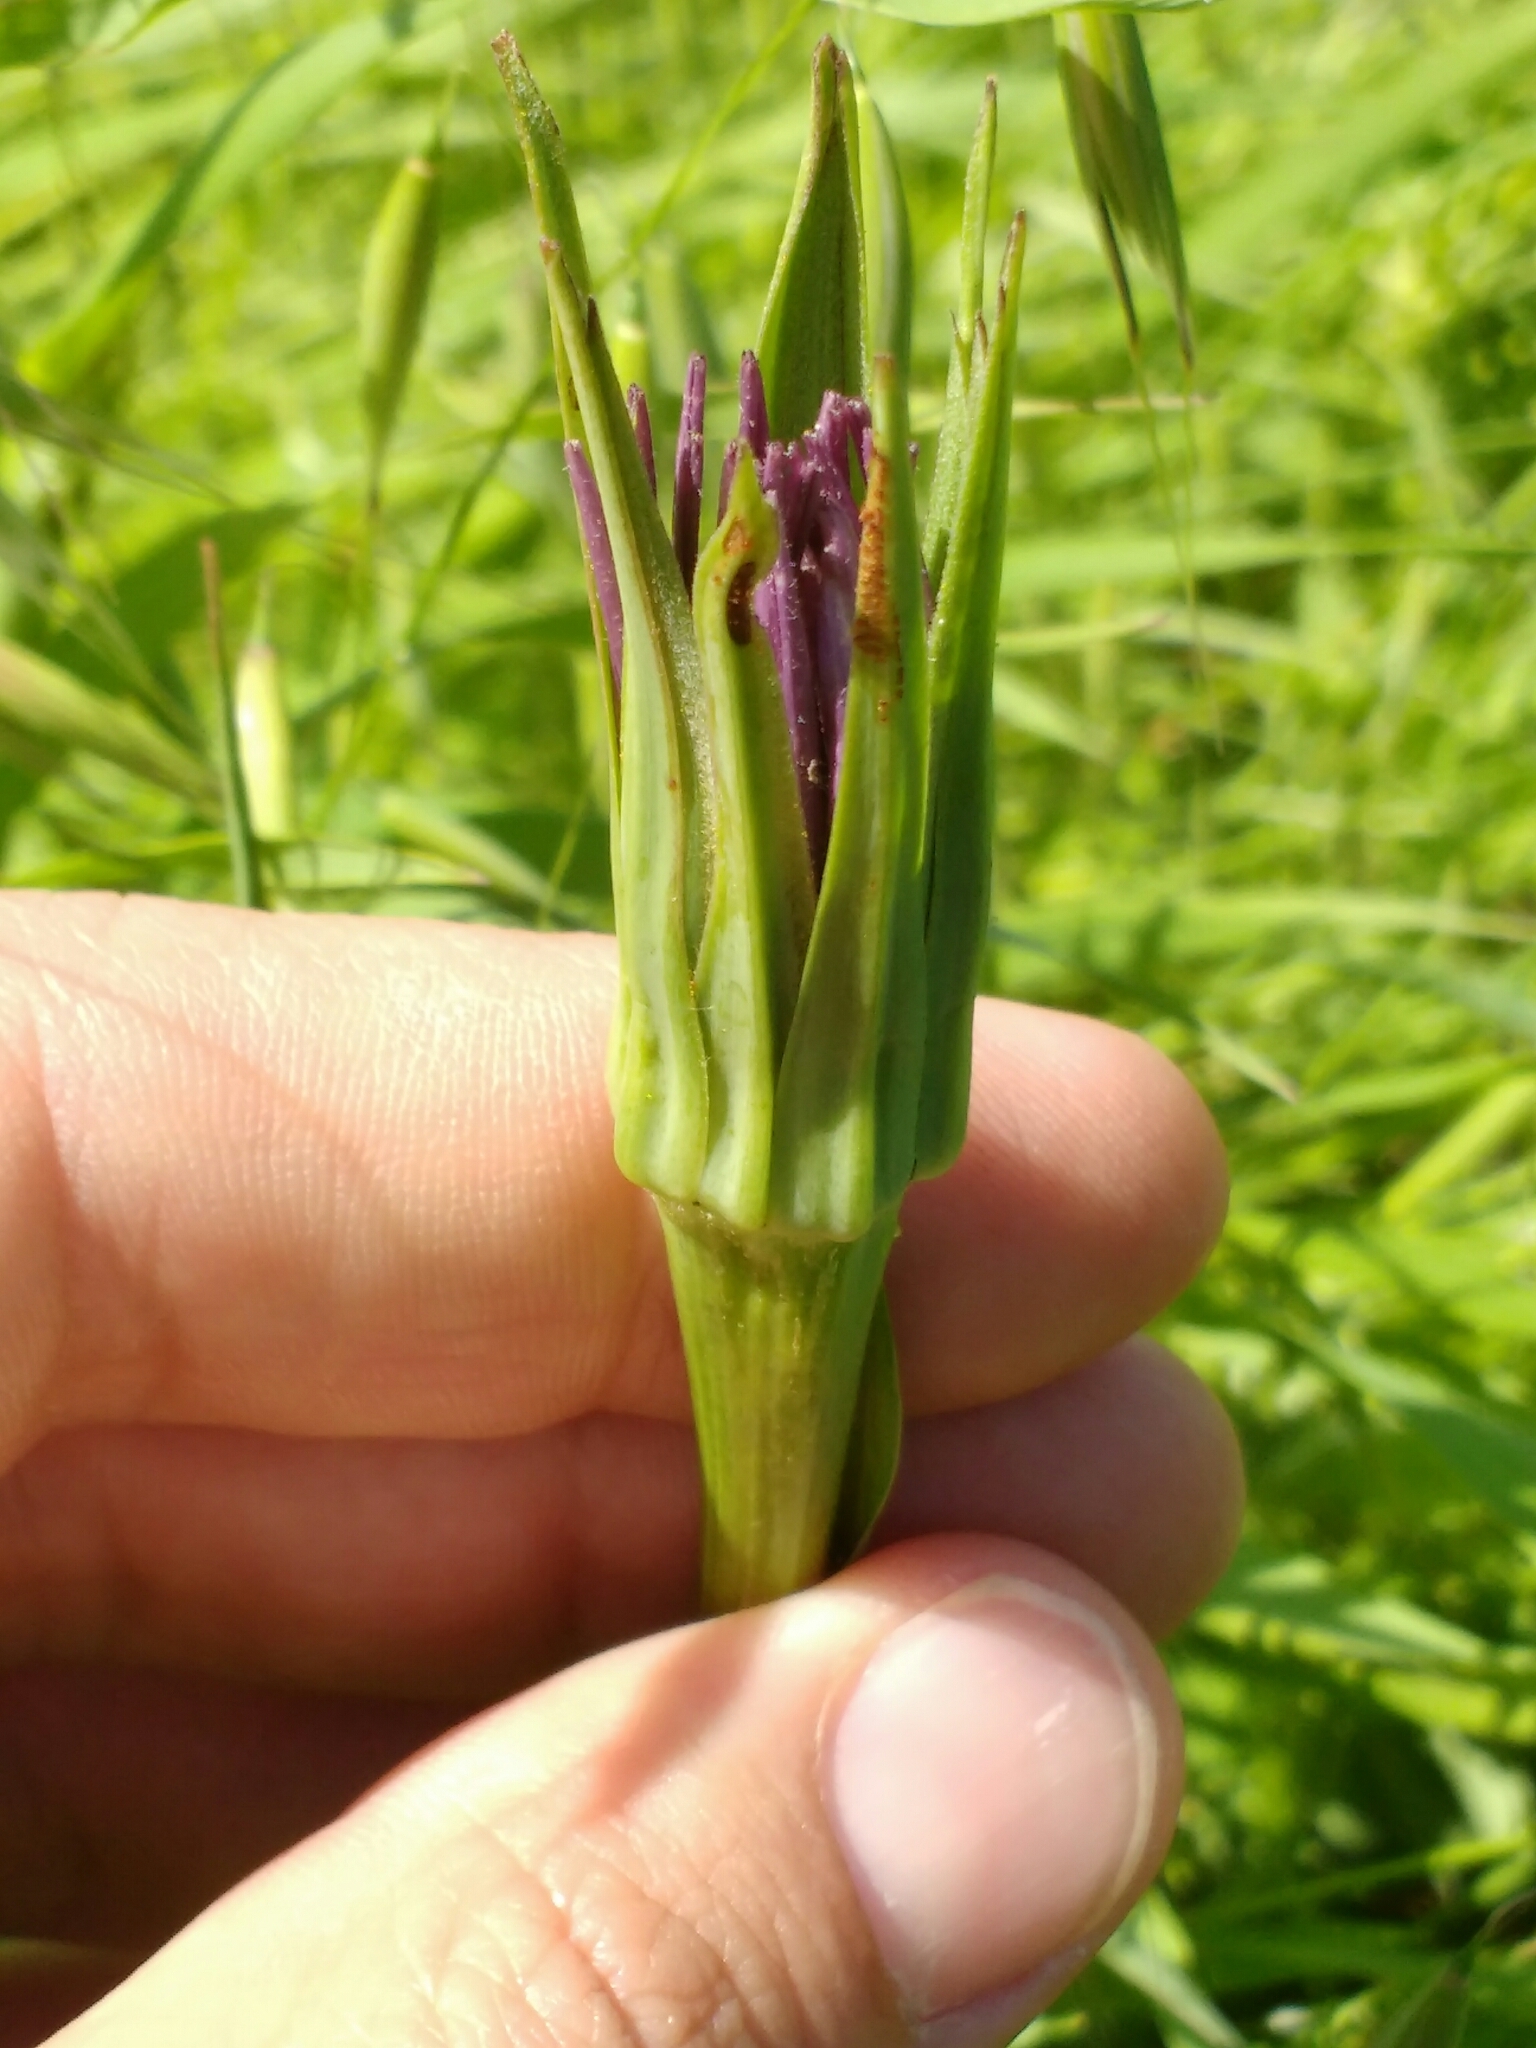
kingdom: Plantae
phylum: Tracheophyta
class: Magnoliopsida
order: Asterales
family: Asteraceae
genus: Tragopogon
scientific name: Tragopogon porrifolius
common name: Salsify
